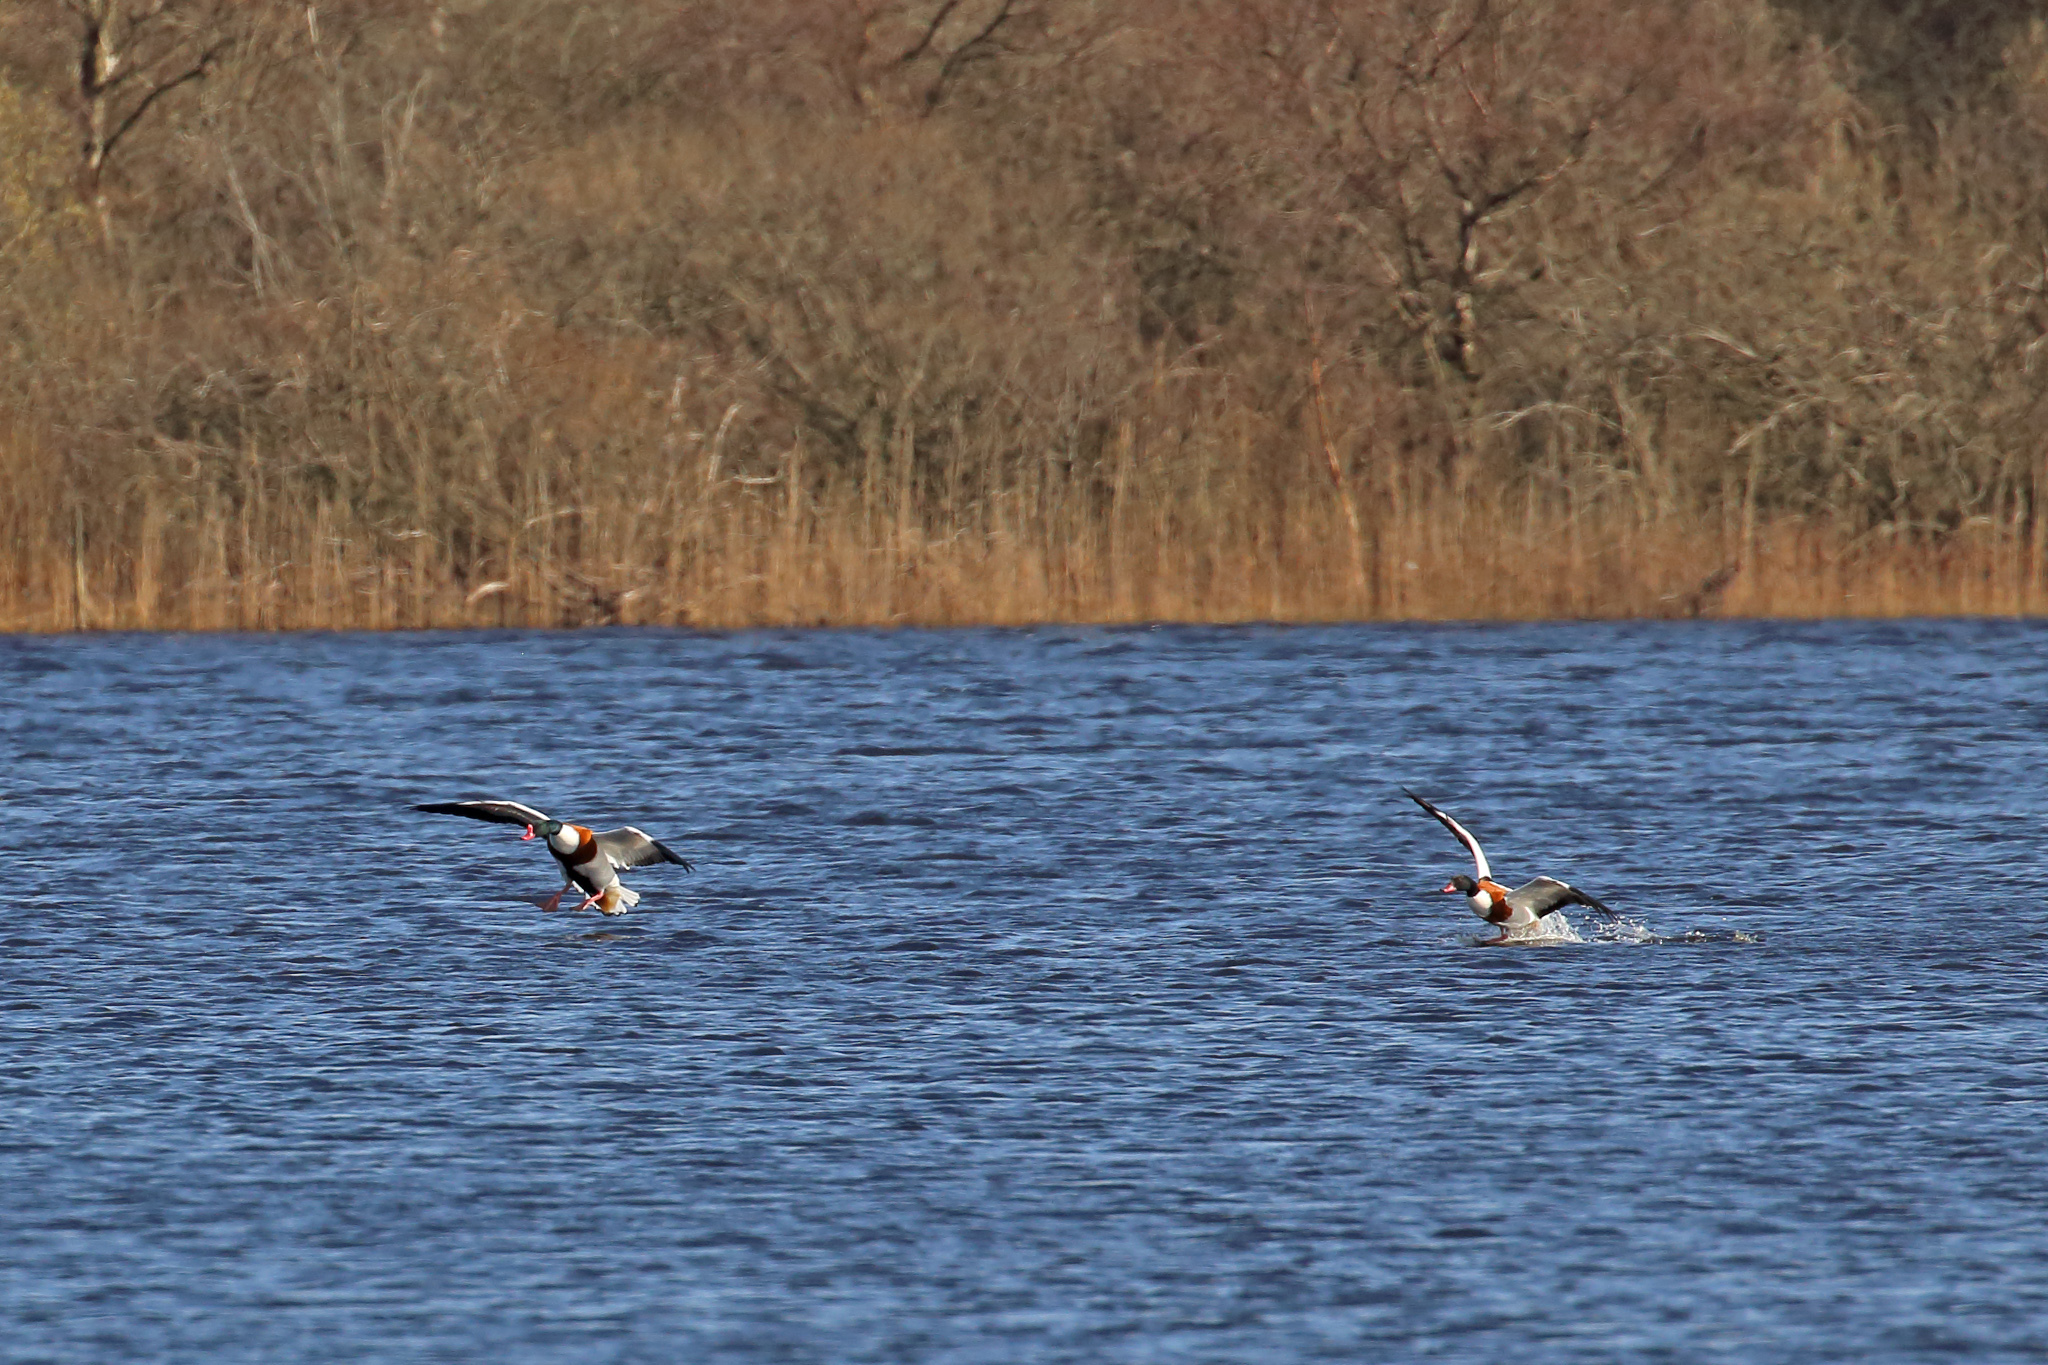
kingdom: Animalia
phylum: Chordata
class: Aves
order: Anseriformes
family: Anatidae
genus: Tadorna
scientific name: Tadorna tadorna
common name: Common shelduck
